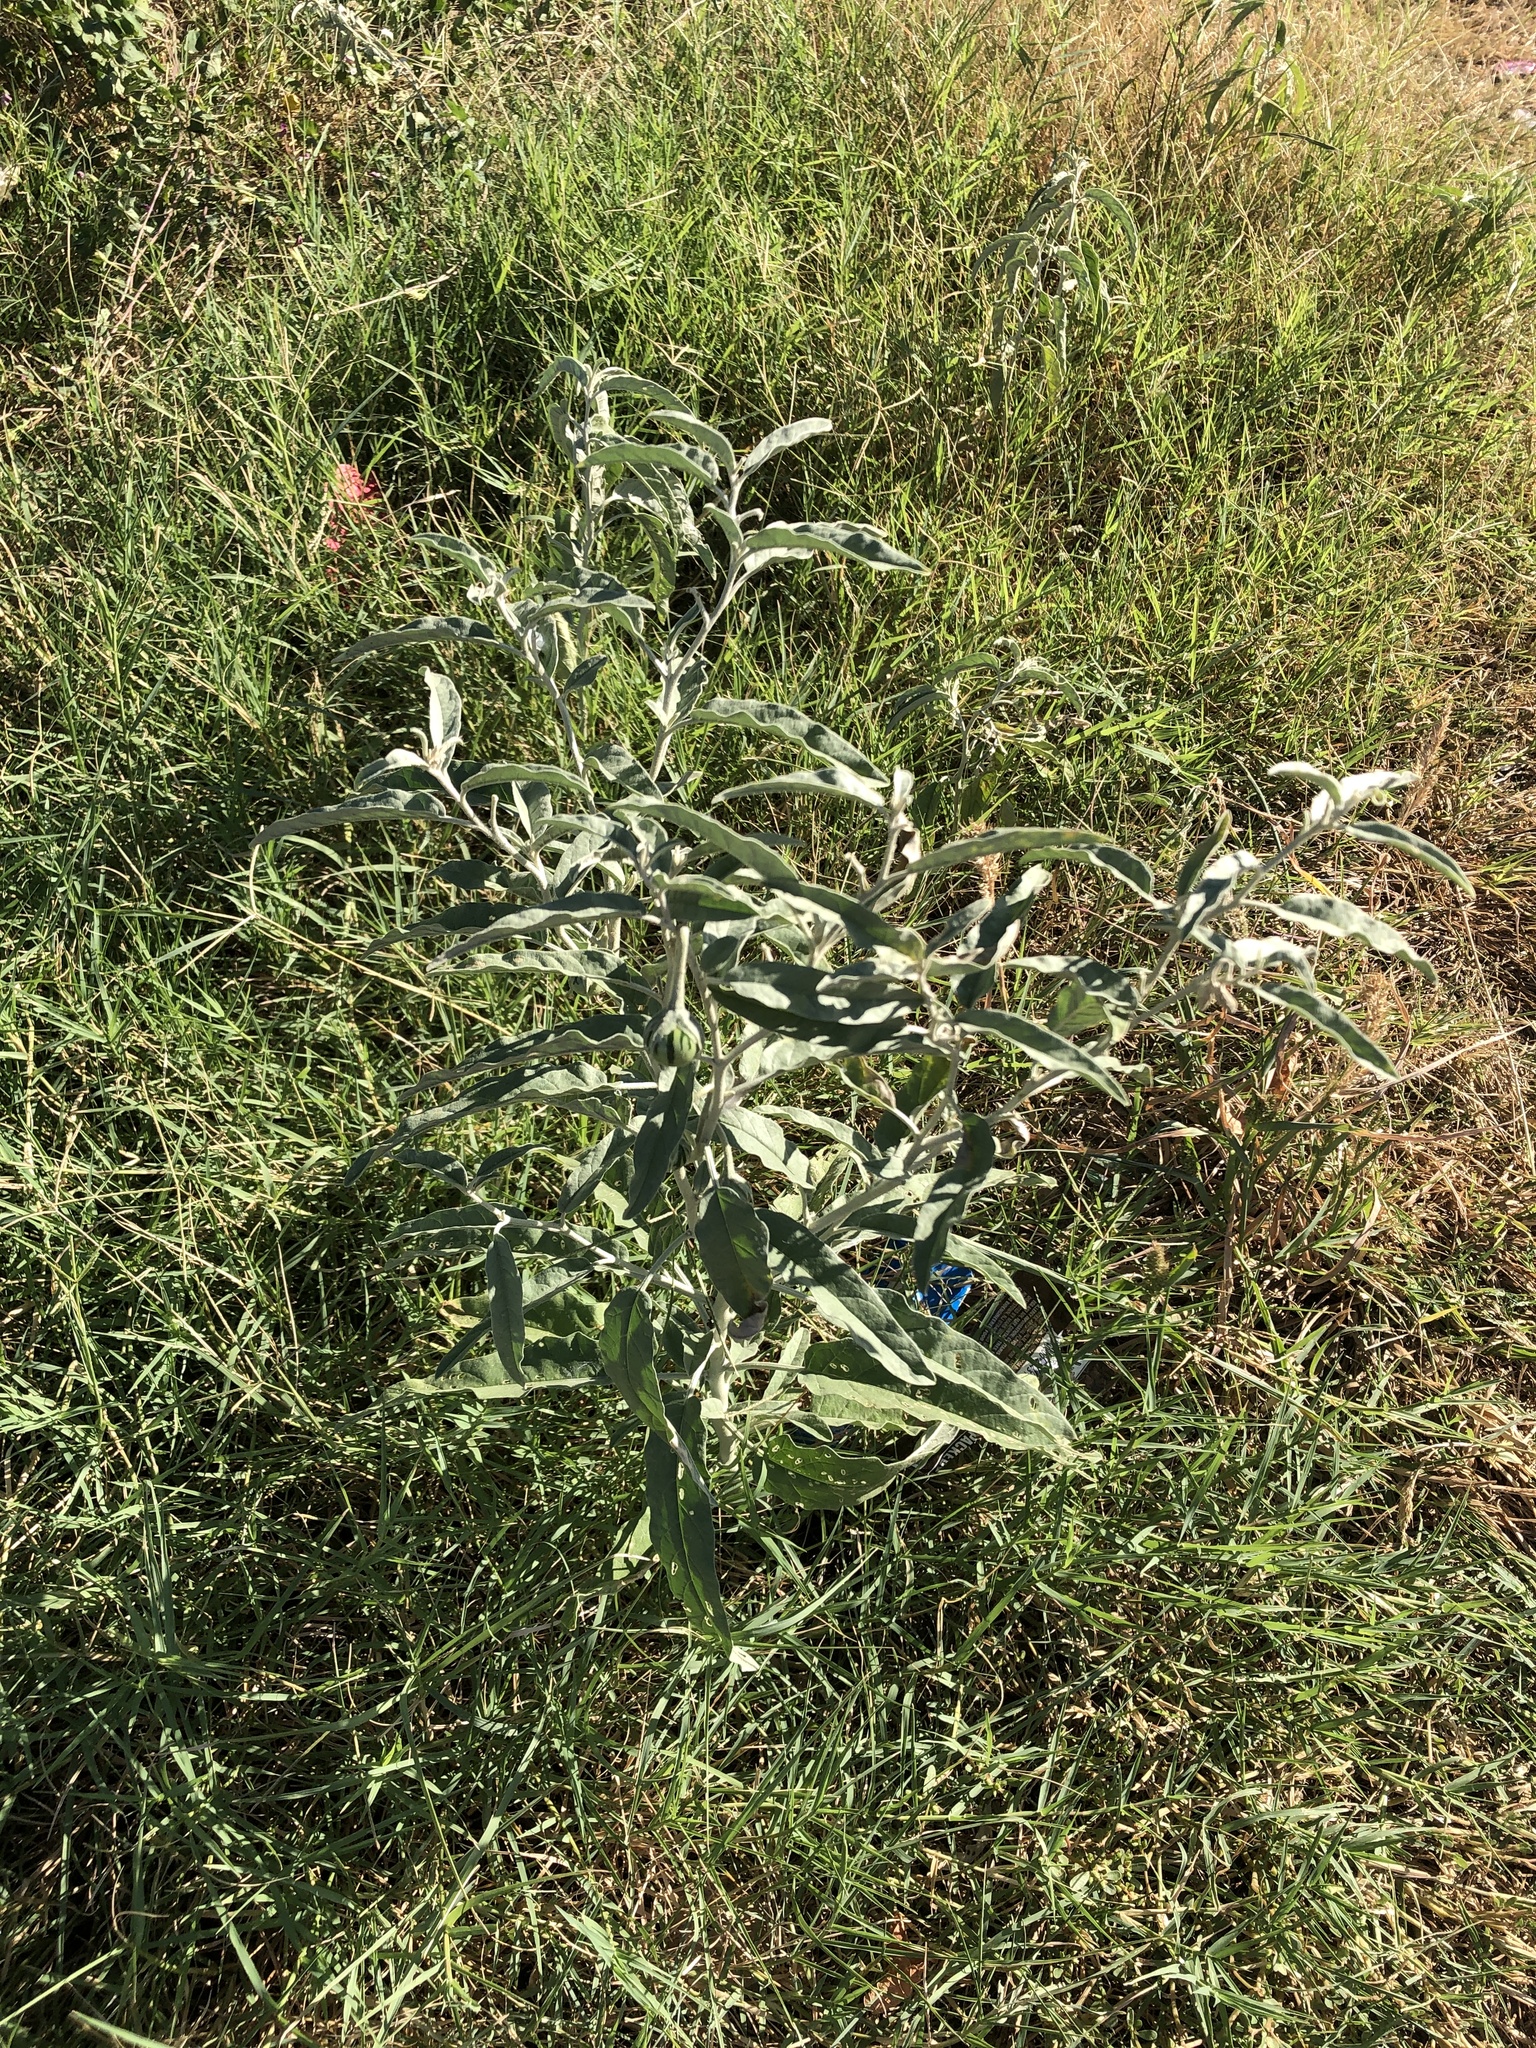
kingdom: Plantae
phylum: Tracheophyta
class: Magnoliopsida
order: Solanales
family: Solanaceae
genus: Solanum
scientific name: Solanum elaeagnifolium
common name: Silverleaf nightshade
